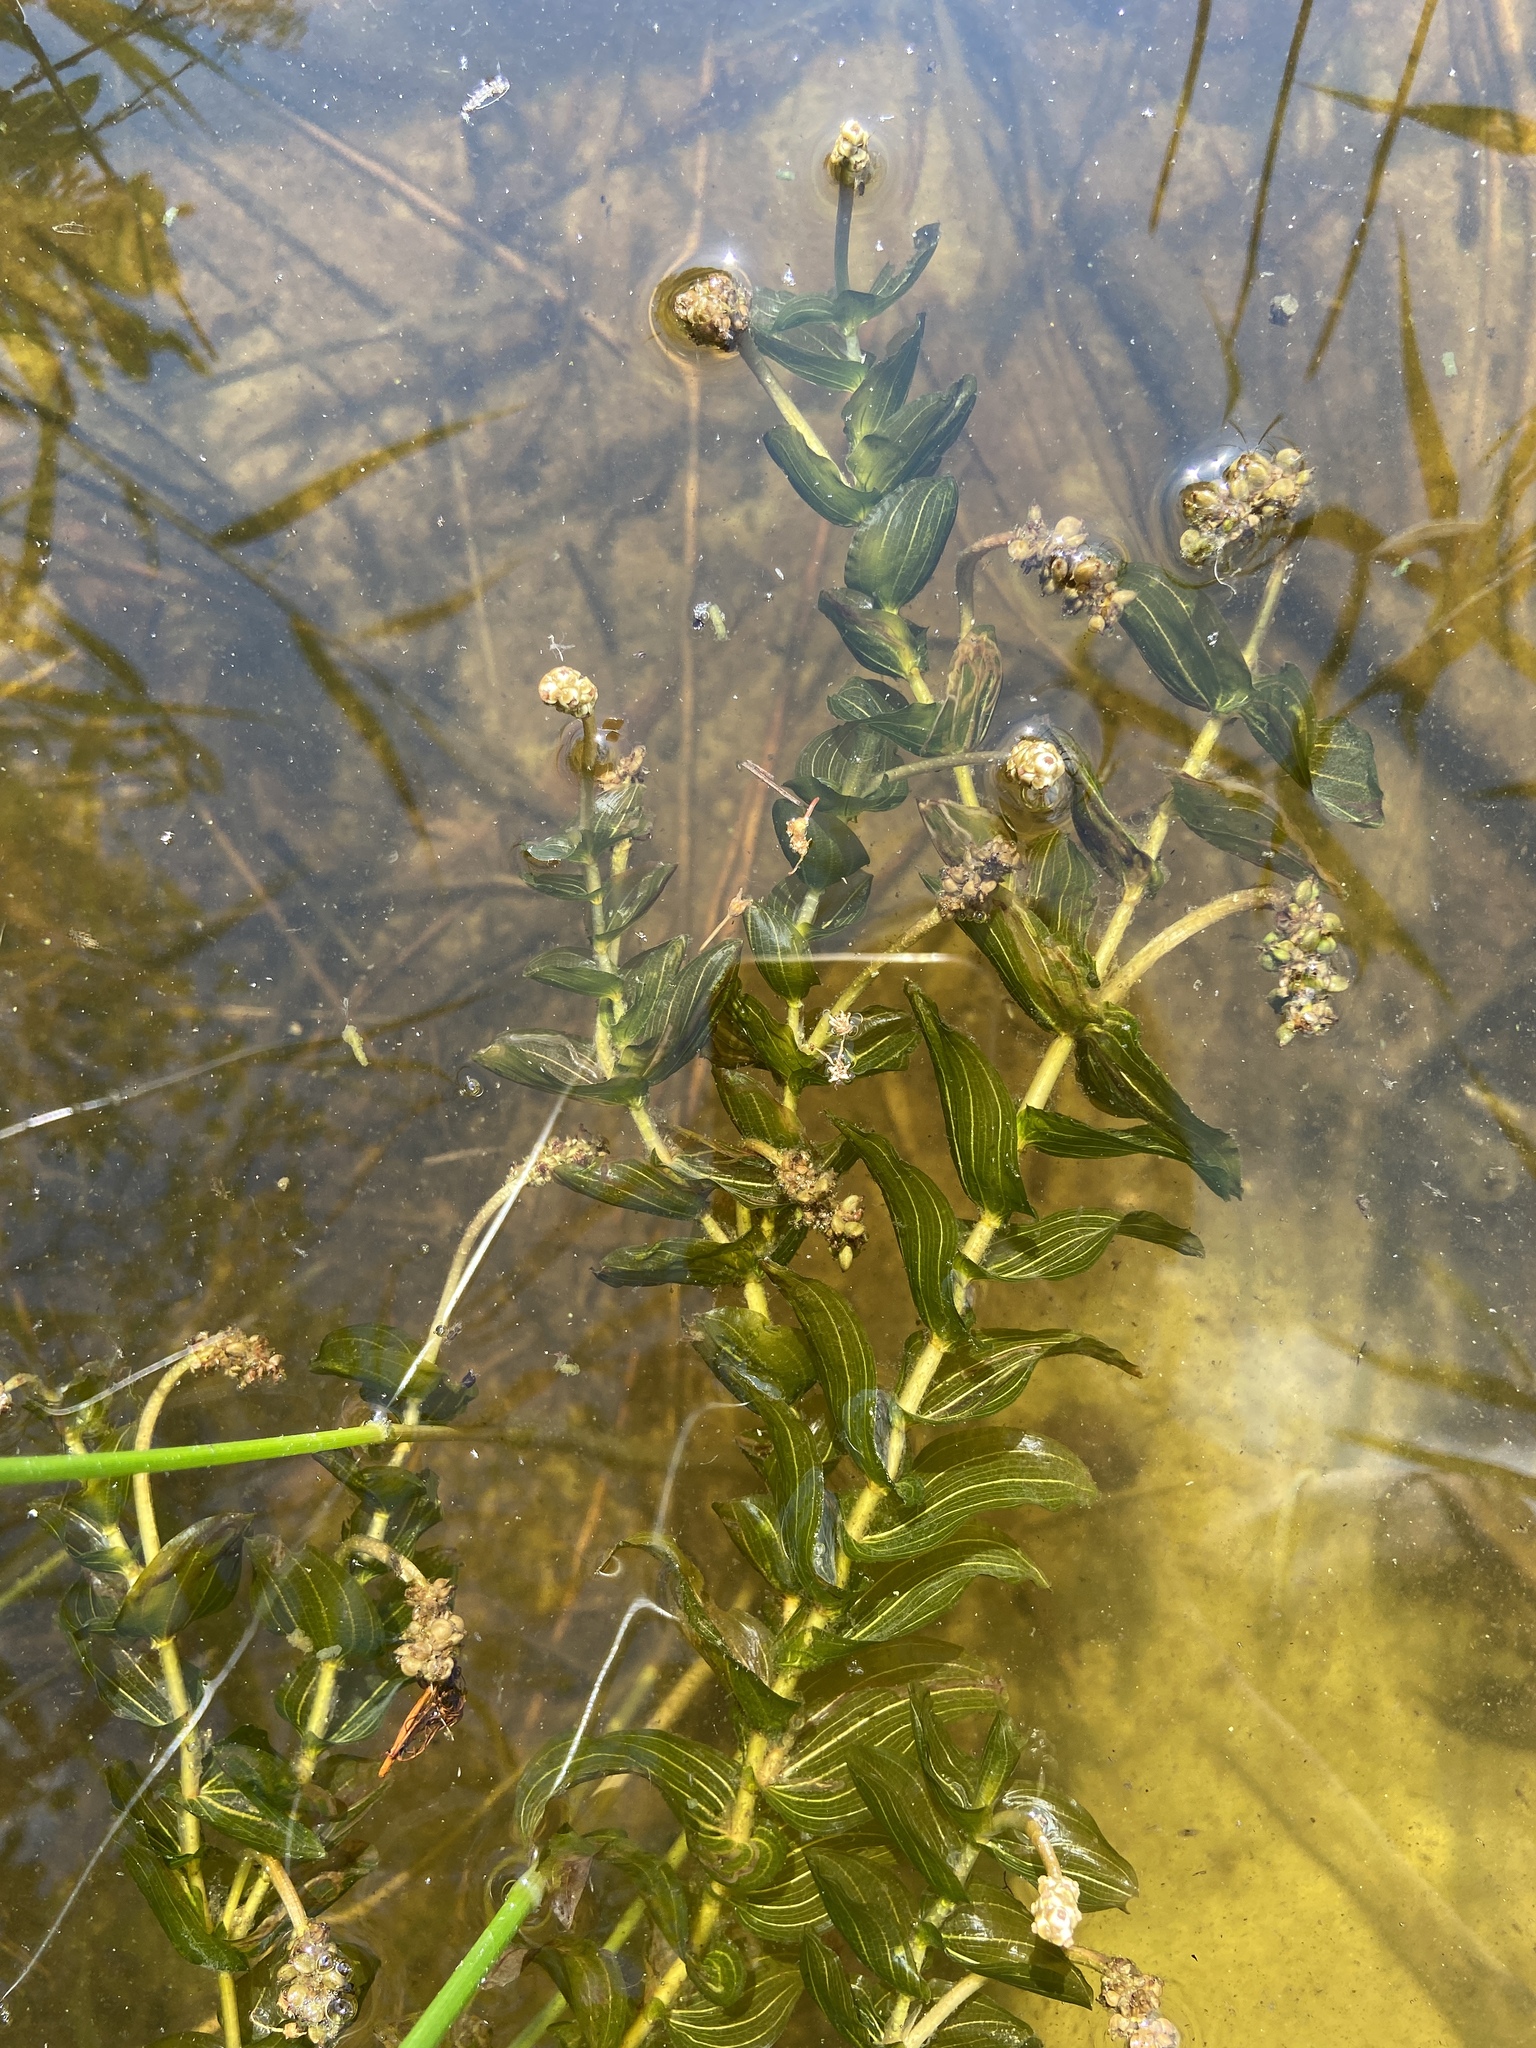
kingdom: Plantae
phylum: Tracheophyta
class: Liliopsida
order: Alismatales
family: Potamogetonaceae
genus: Potamogeton
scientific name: Potamogeton perfoliatus
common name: Perfoliate pondweed
